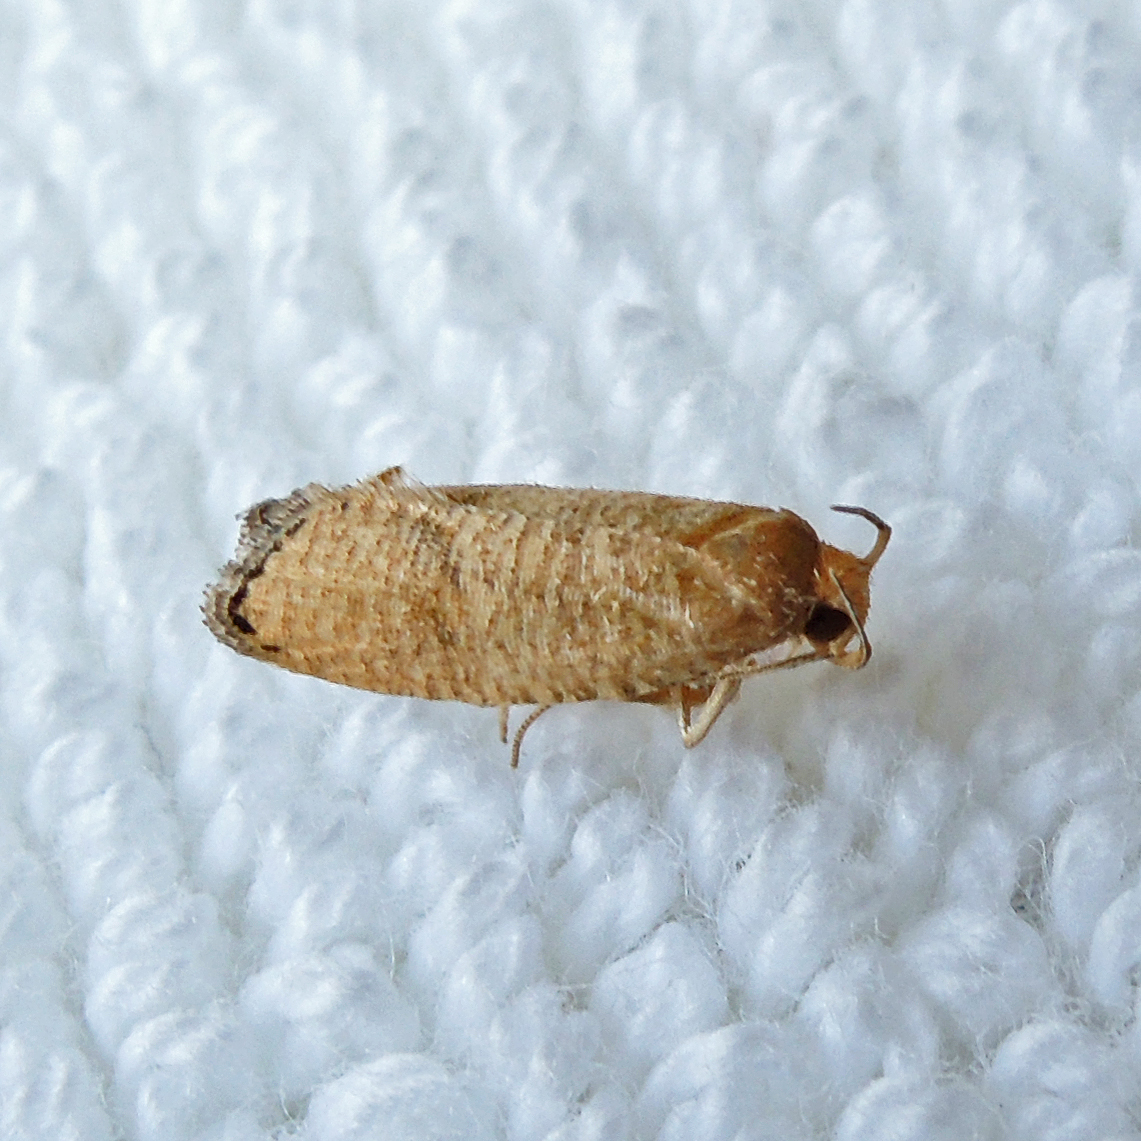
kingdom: Animalia
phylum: Arthropoda
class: Insecta
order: Lepidoptera
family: Depressariidae
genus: Psilocorsis
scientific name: Psilocorsis cryptolechiella
